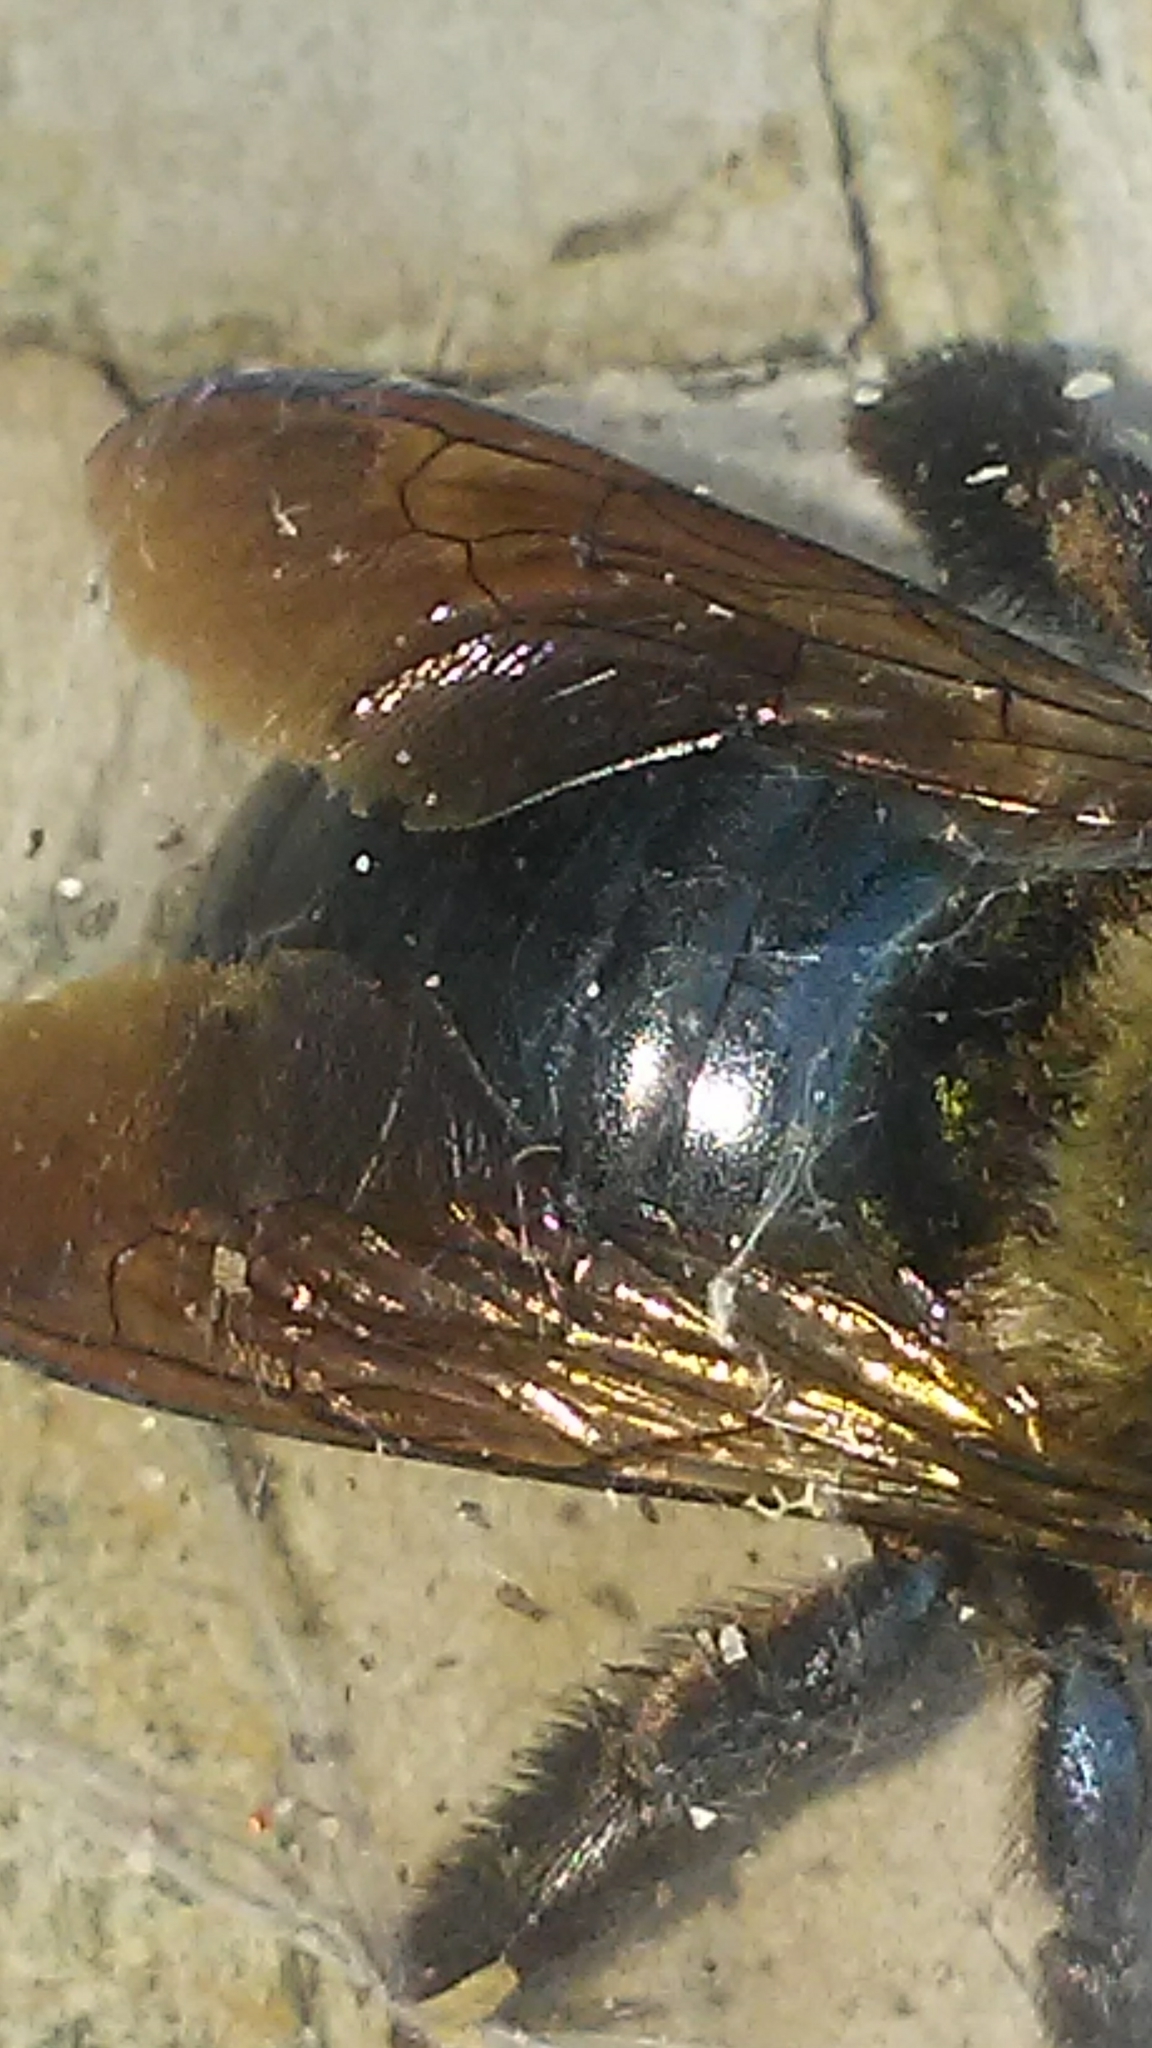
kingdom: Animalia
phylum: Arthropoda
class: Insecta
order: Hymenoptera
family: Apidae
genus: Xylocopa
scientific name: Xylocopa virginica
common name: Carpenter bee
